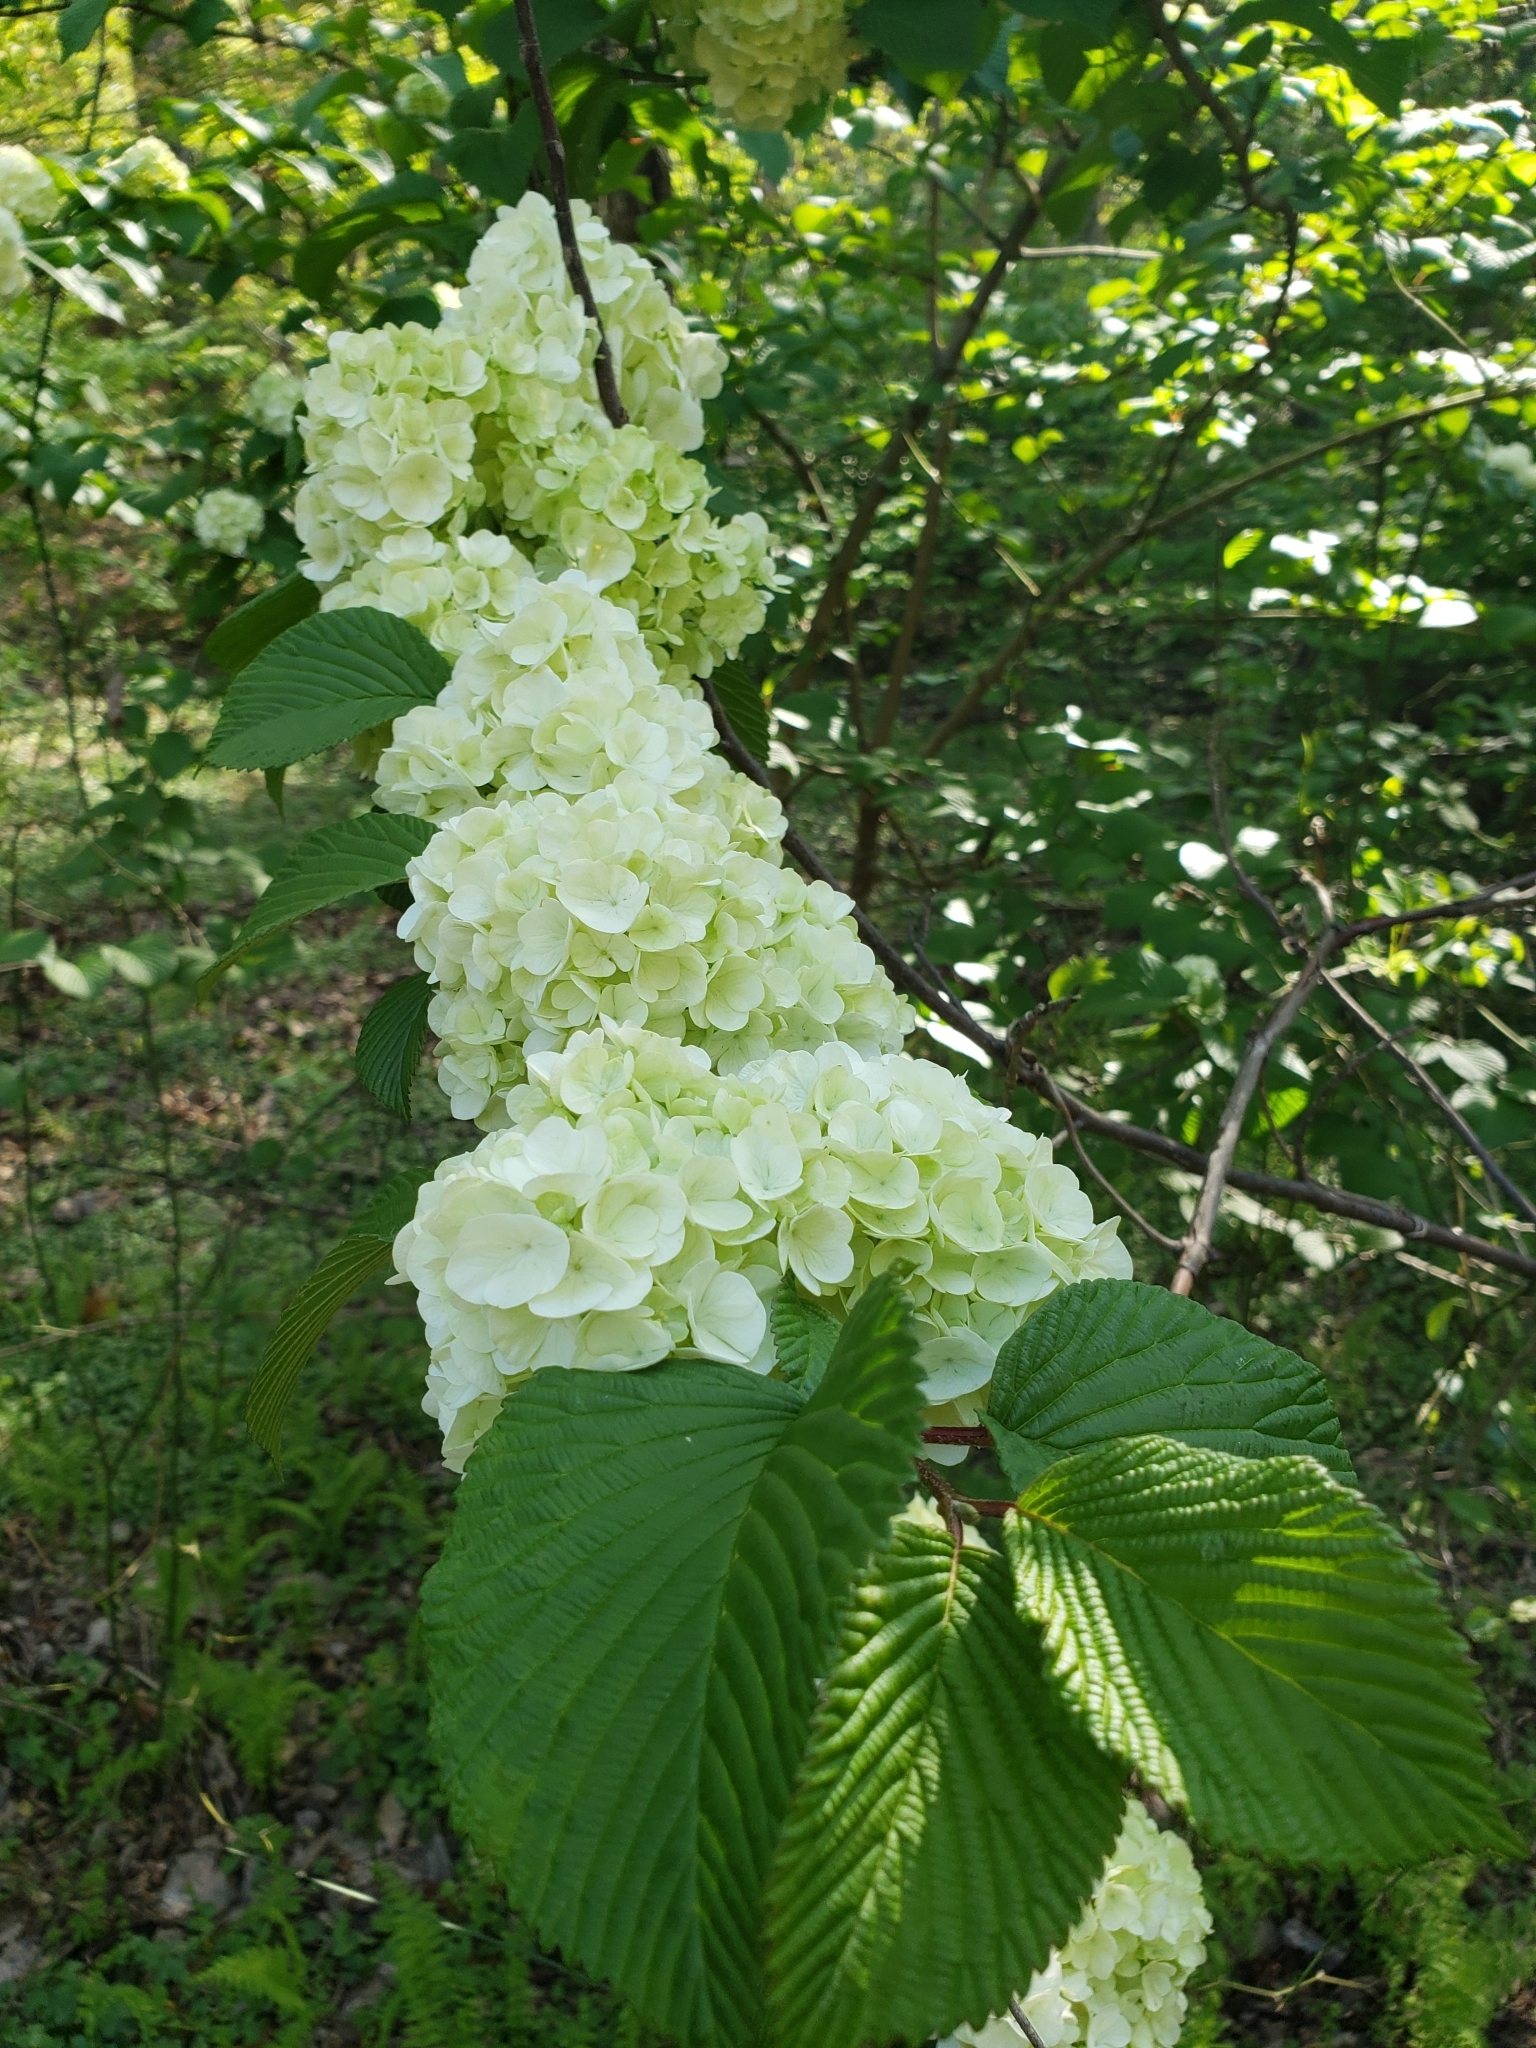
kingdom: Plantae
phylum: Tracheophyta
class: Magnoliopsida
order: Dipsacales
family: Viburnaceae
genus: Viburnum
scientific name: Viburnum plicatum
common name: Japanese snowball
